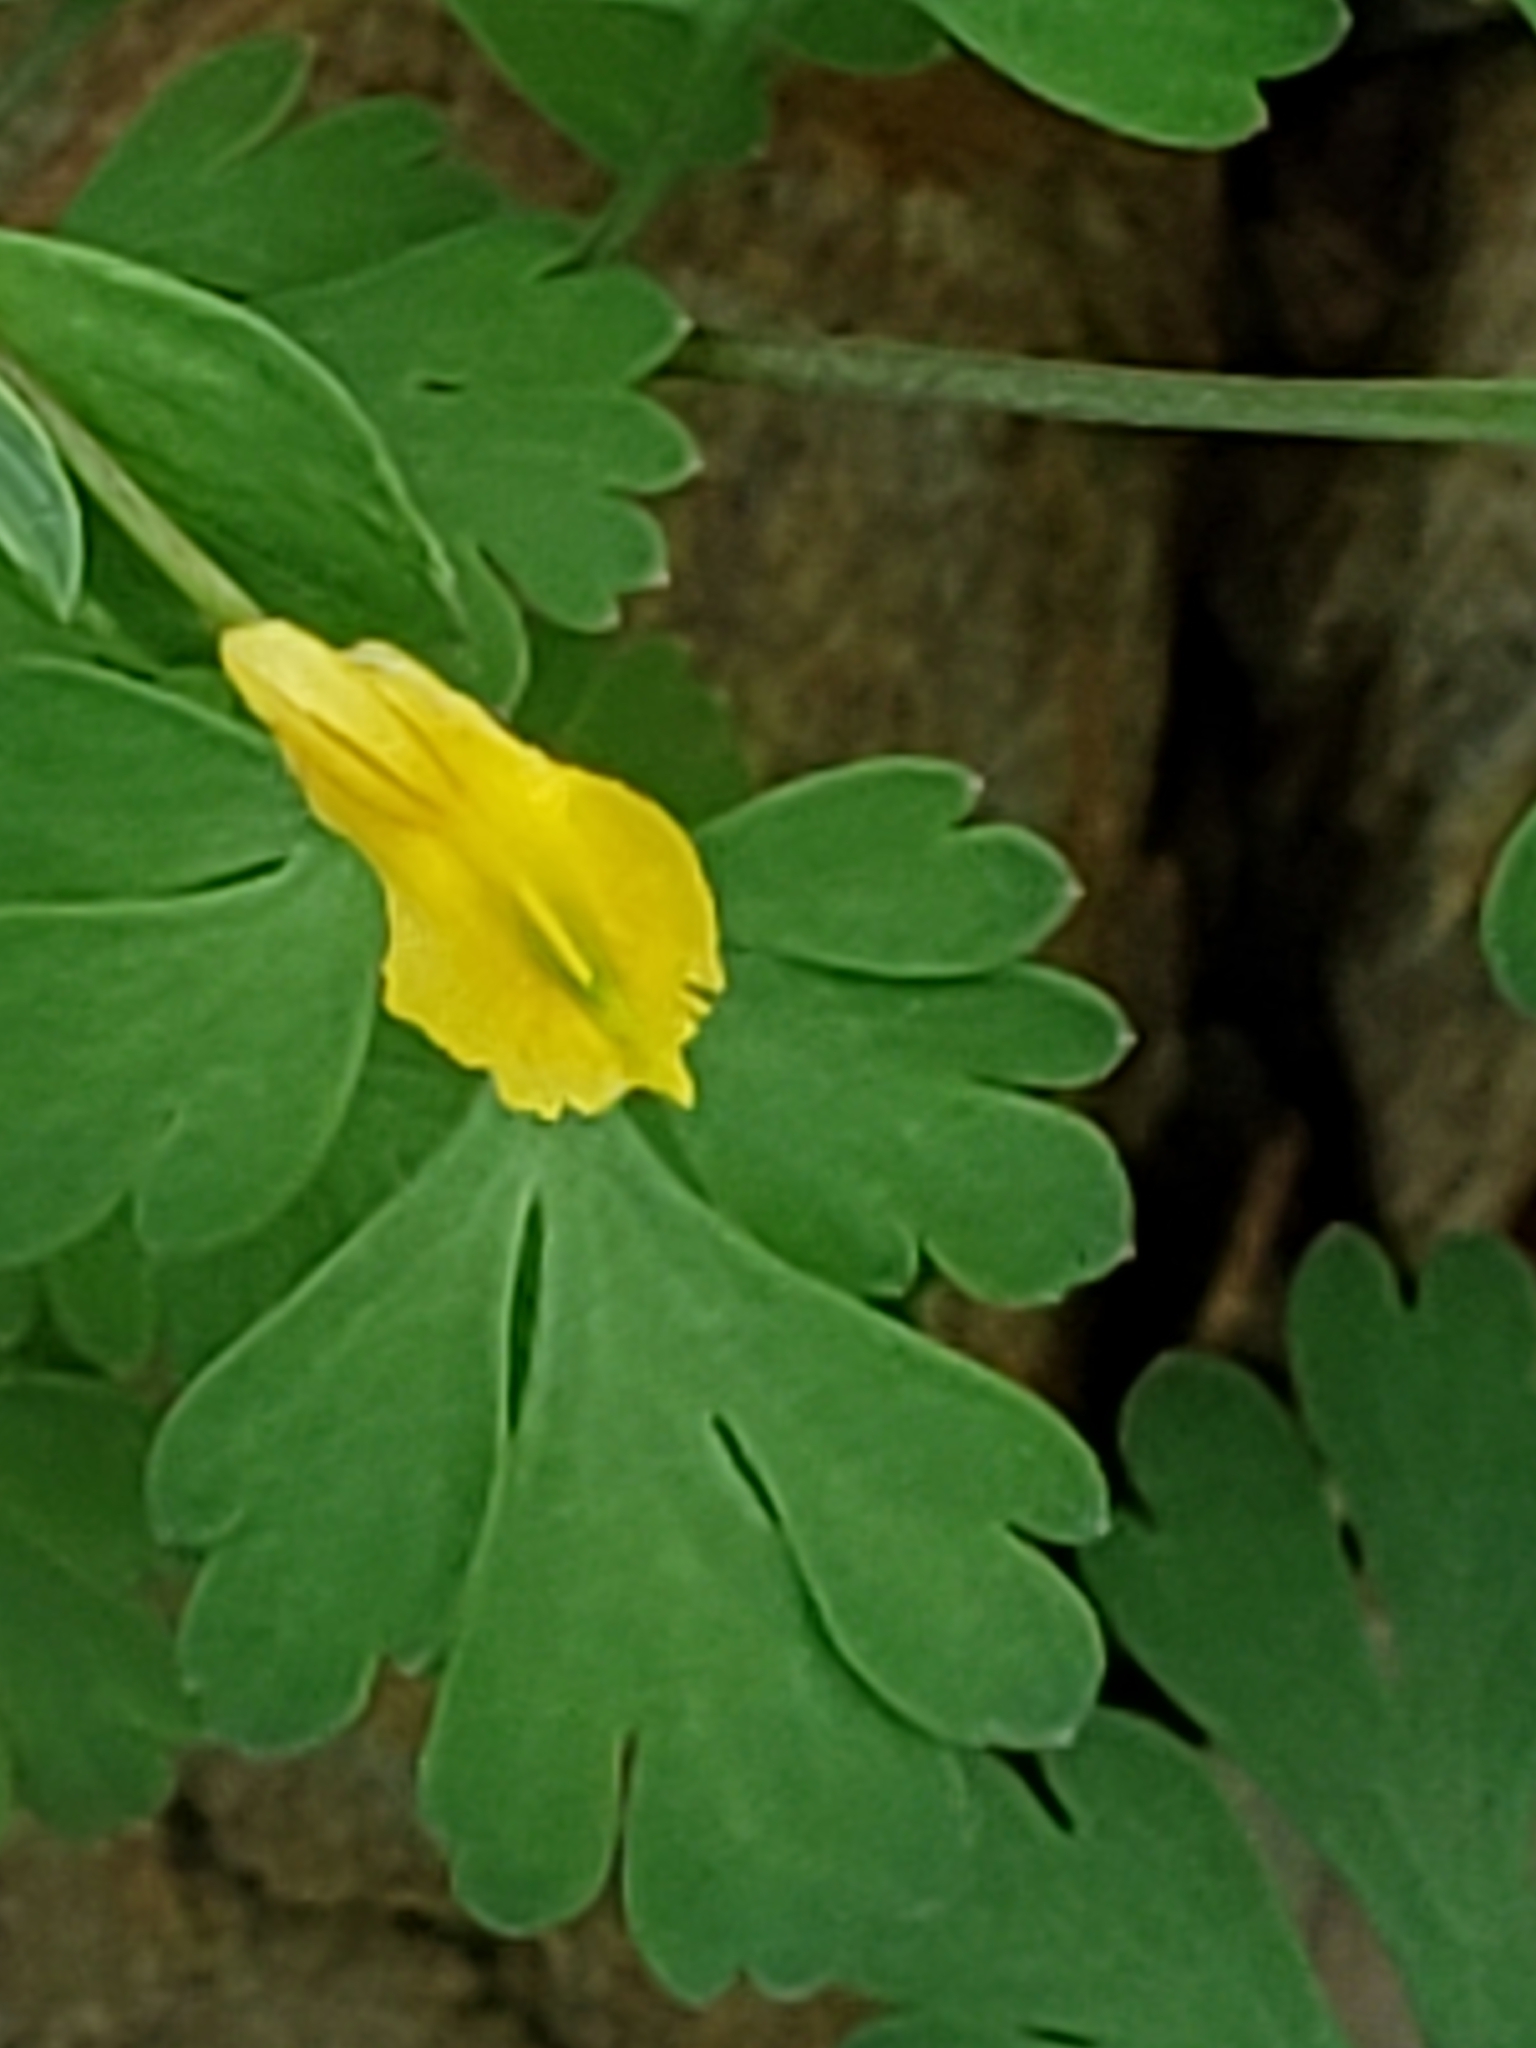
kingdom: Plantae
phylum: Tracheophyta
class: Magnoliopsida
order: Ranunculales
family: Papaveraceae
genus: Corydalis
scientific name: Corydalis flavula
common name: Yellow corydalis
